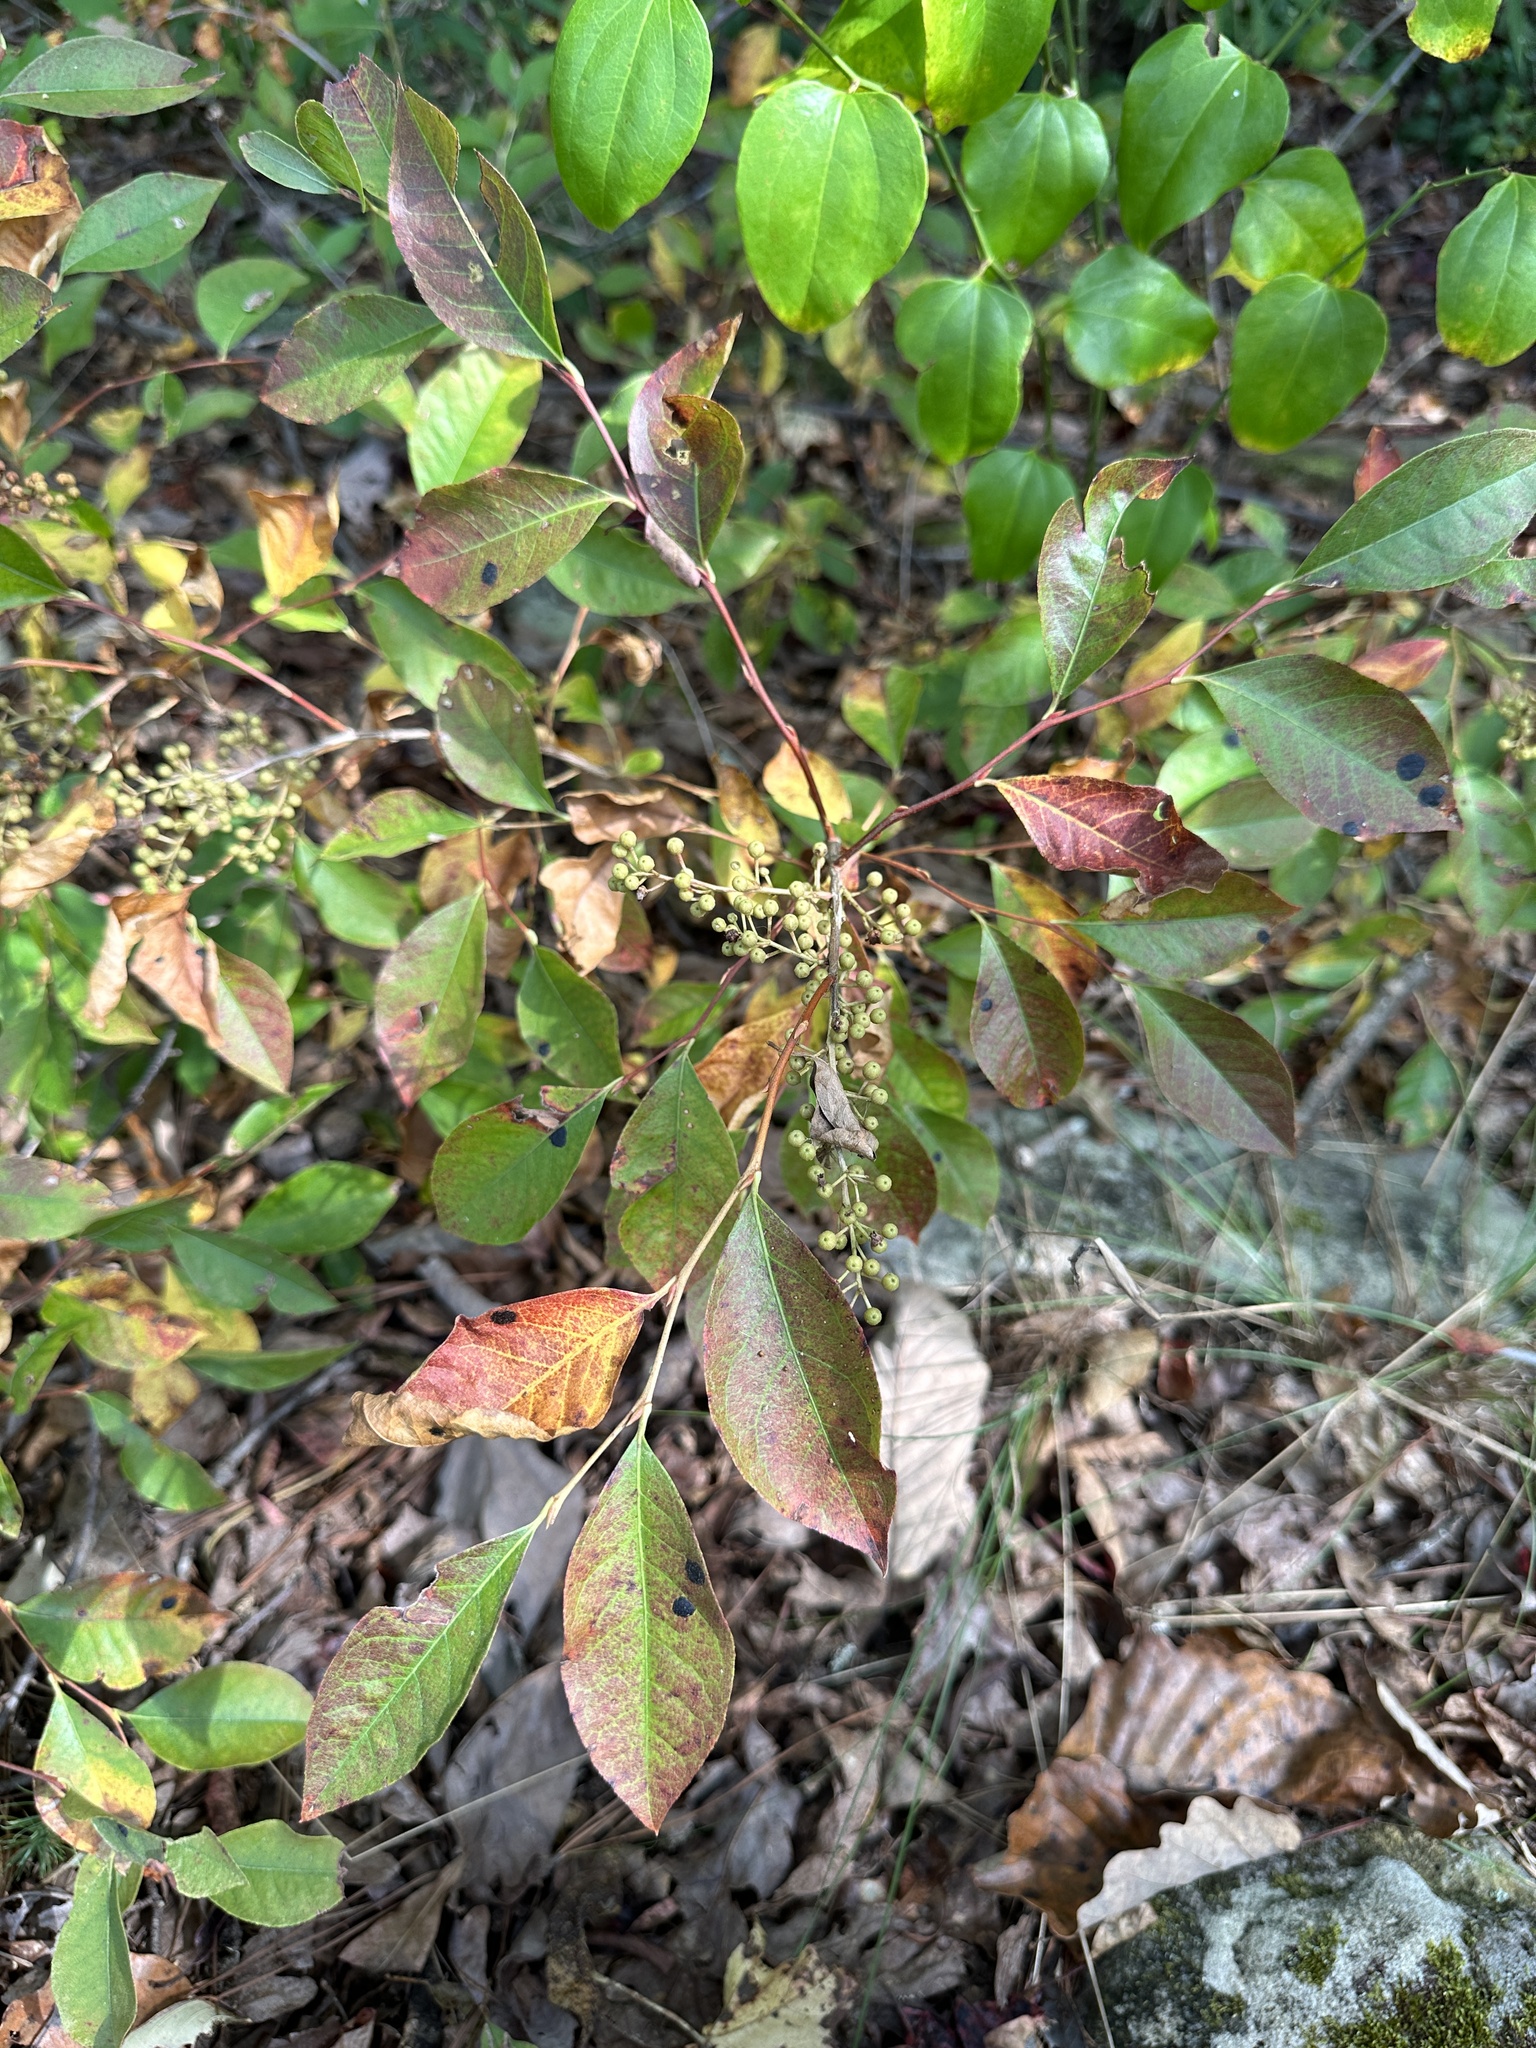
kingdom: Plantae
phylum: Tracheophyta
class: Magnoliopsida
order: Ericales
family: Ericaceae
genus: Lyonia
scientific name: Lyonia ligustrina
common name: Maleberry
